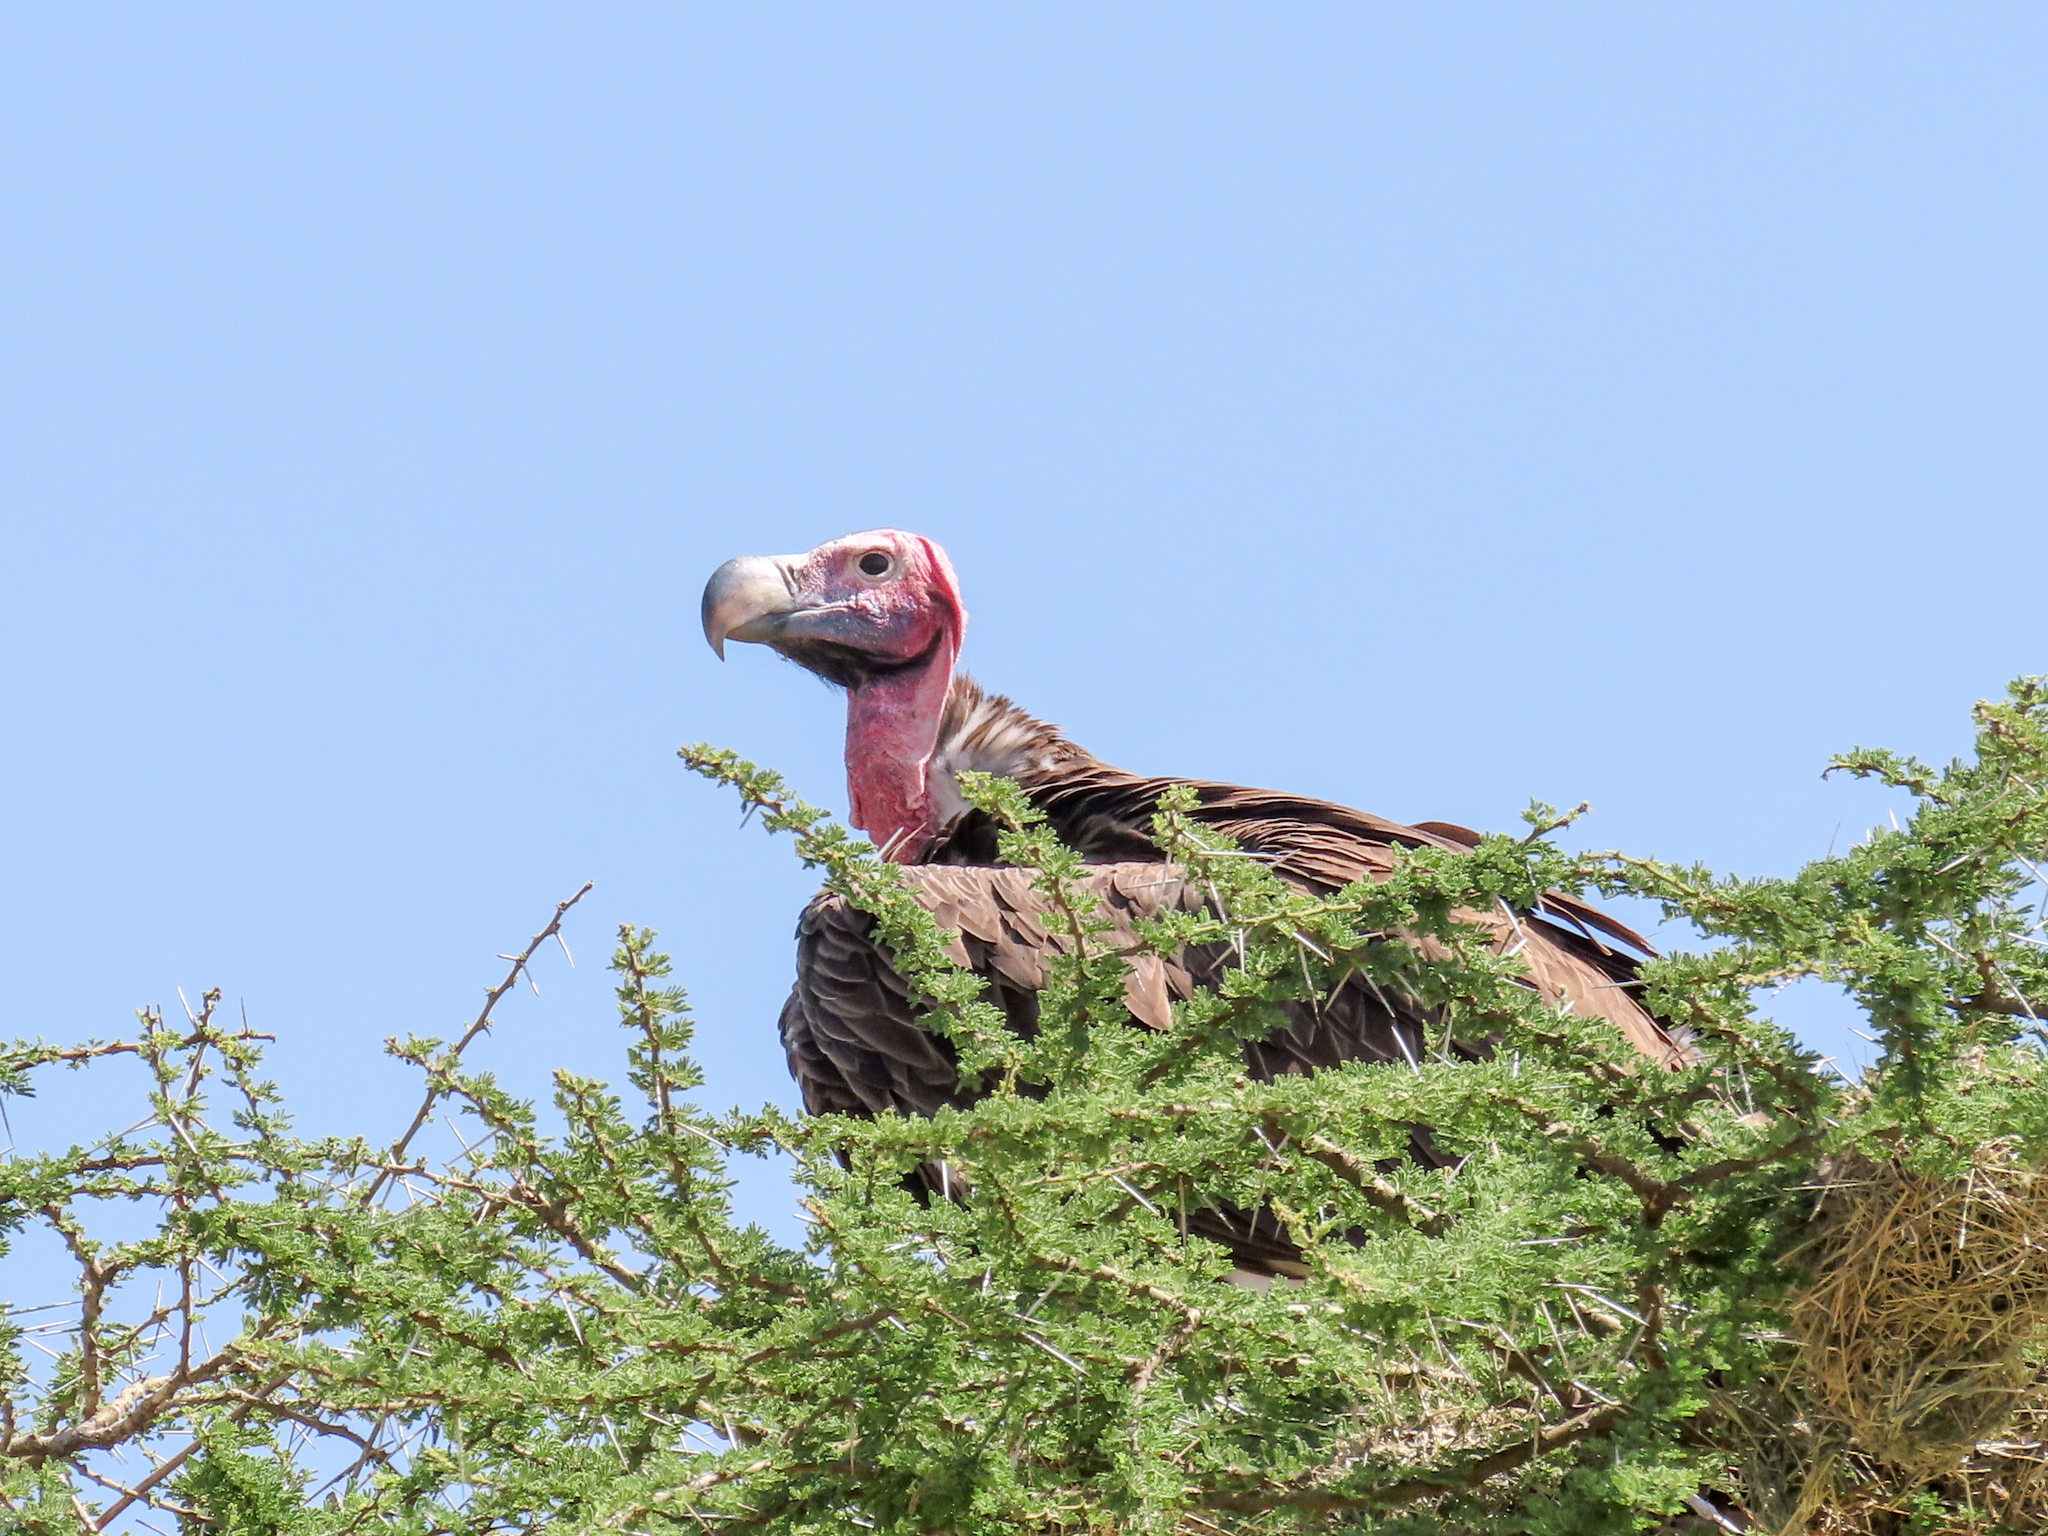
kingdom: Animalia
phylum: Chordata
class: Aves
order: Accipitriformes
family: Accipitridae
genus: Torgos
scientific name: Torgos tracheliotos
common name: Lappet-faced vulture
